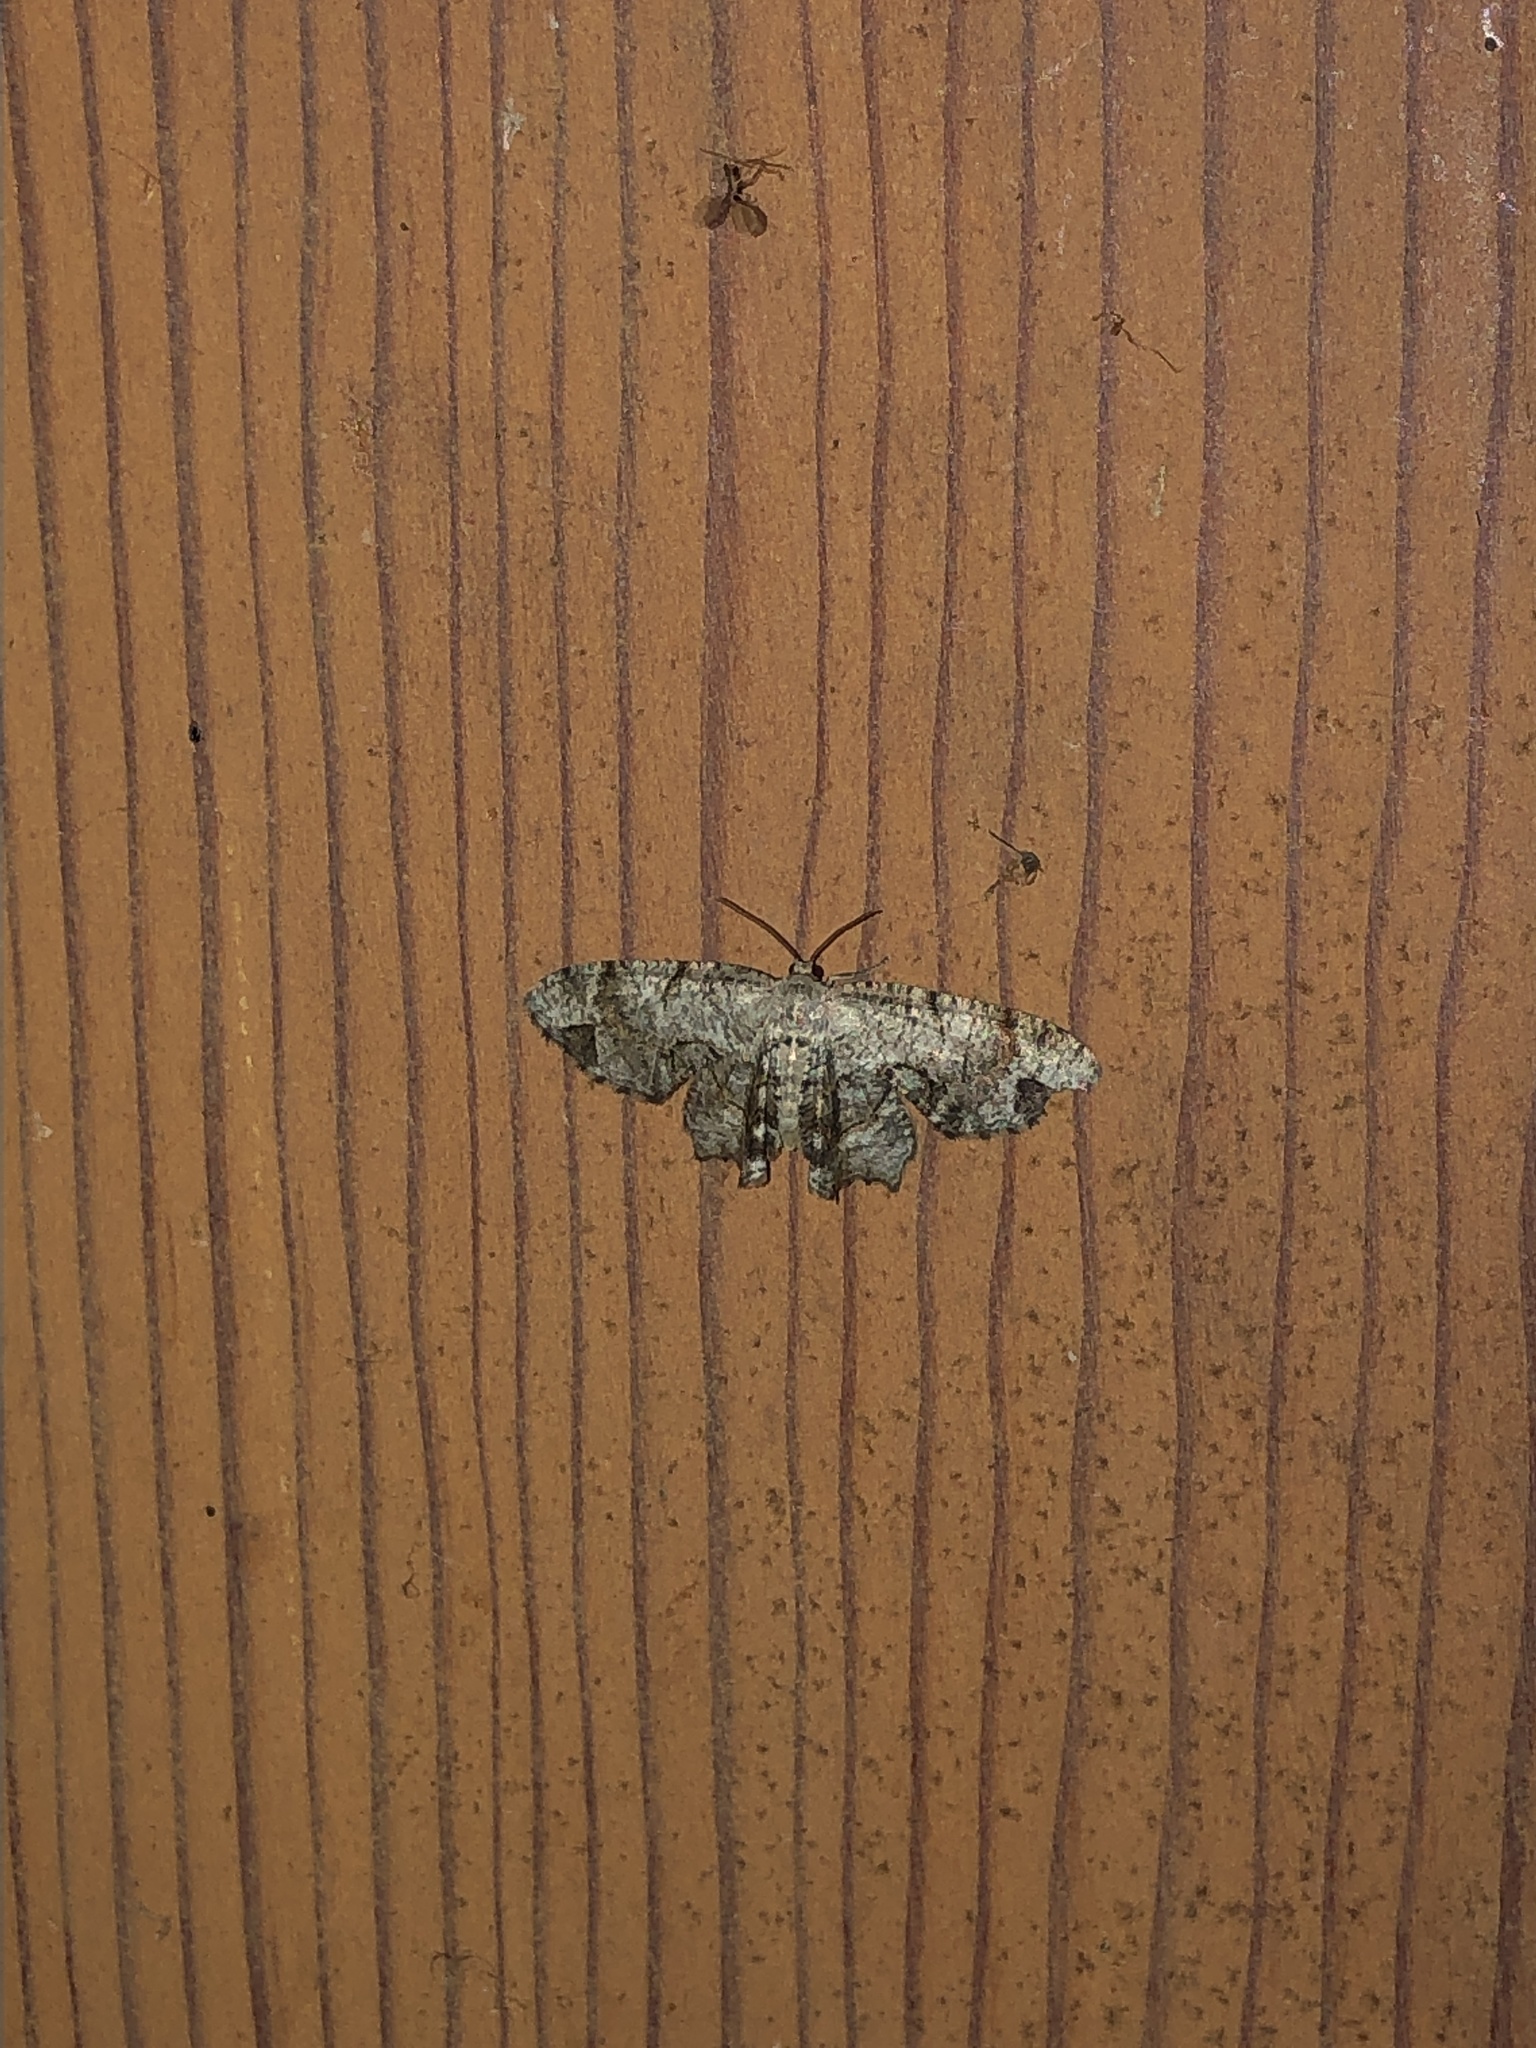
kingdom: Animalia
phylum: Arthropoda
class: Insecta
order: Lepidoptera
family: Uraniidae
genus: Epiplema
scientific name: Epiplema Callizzia amorata
